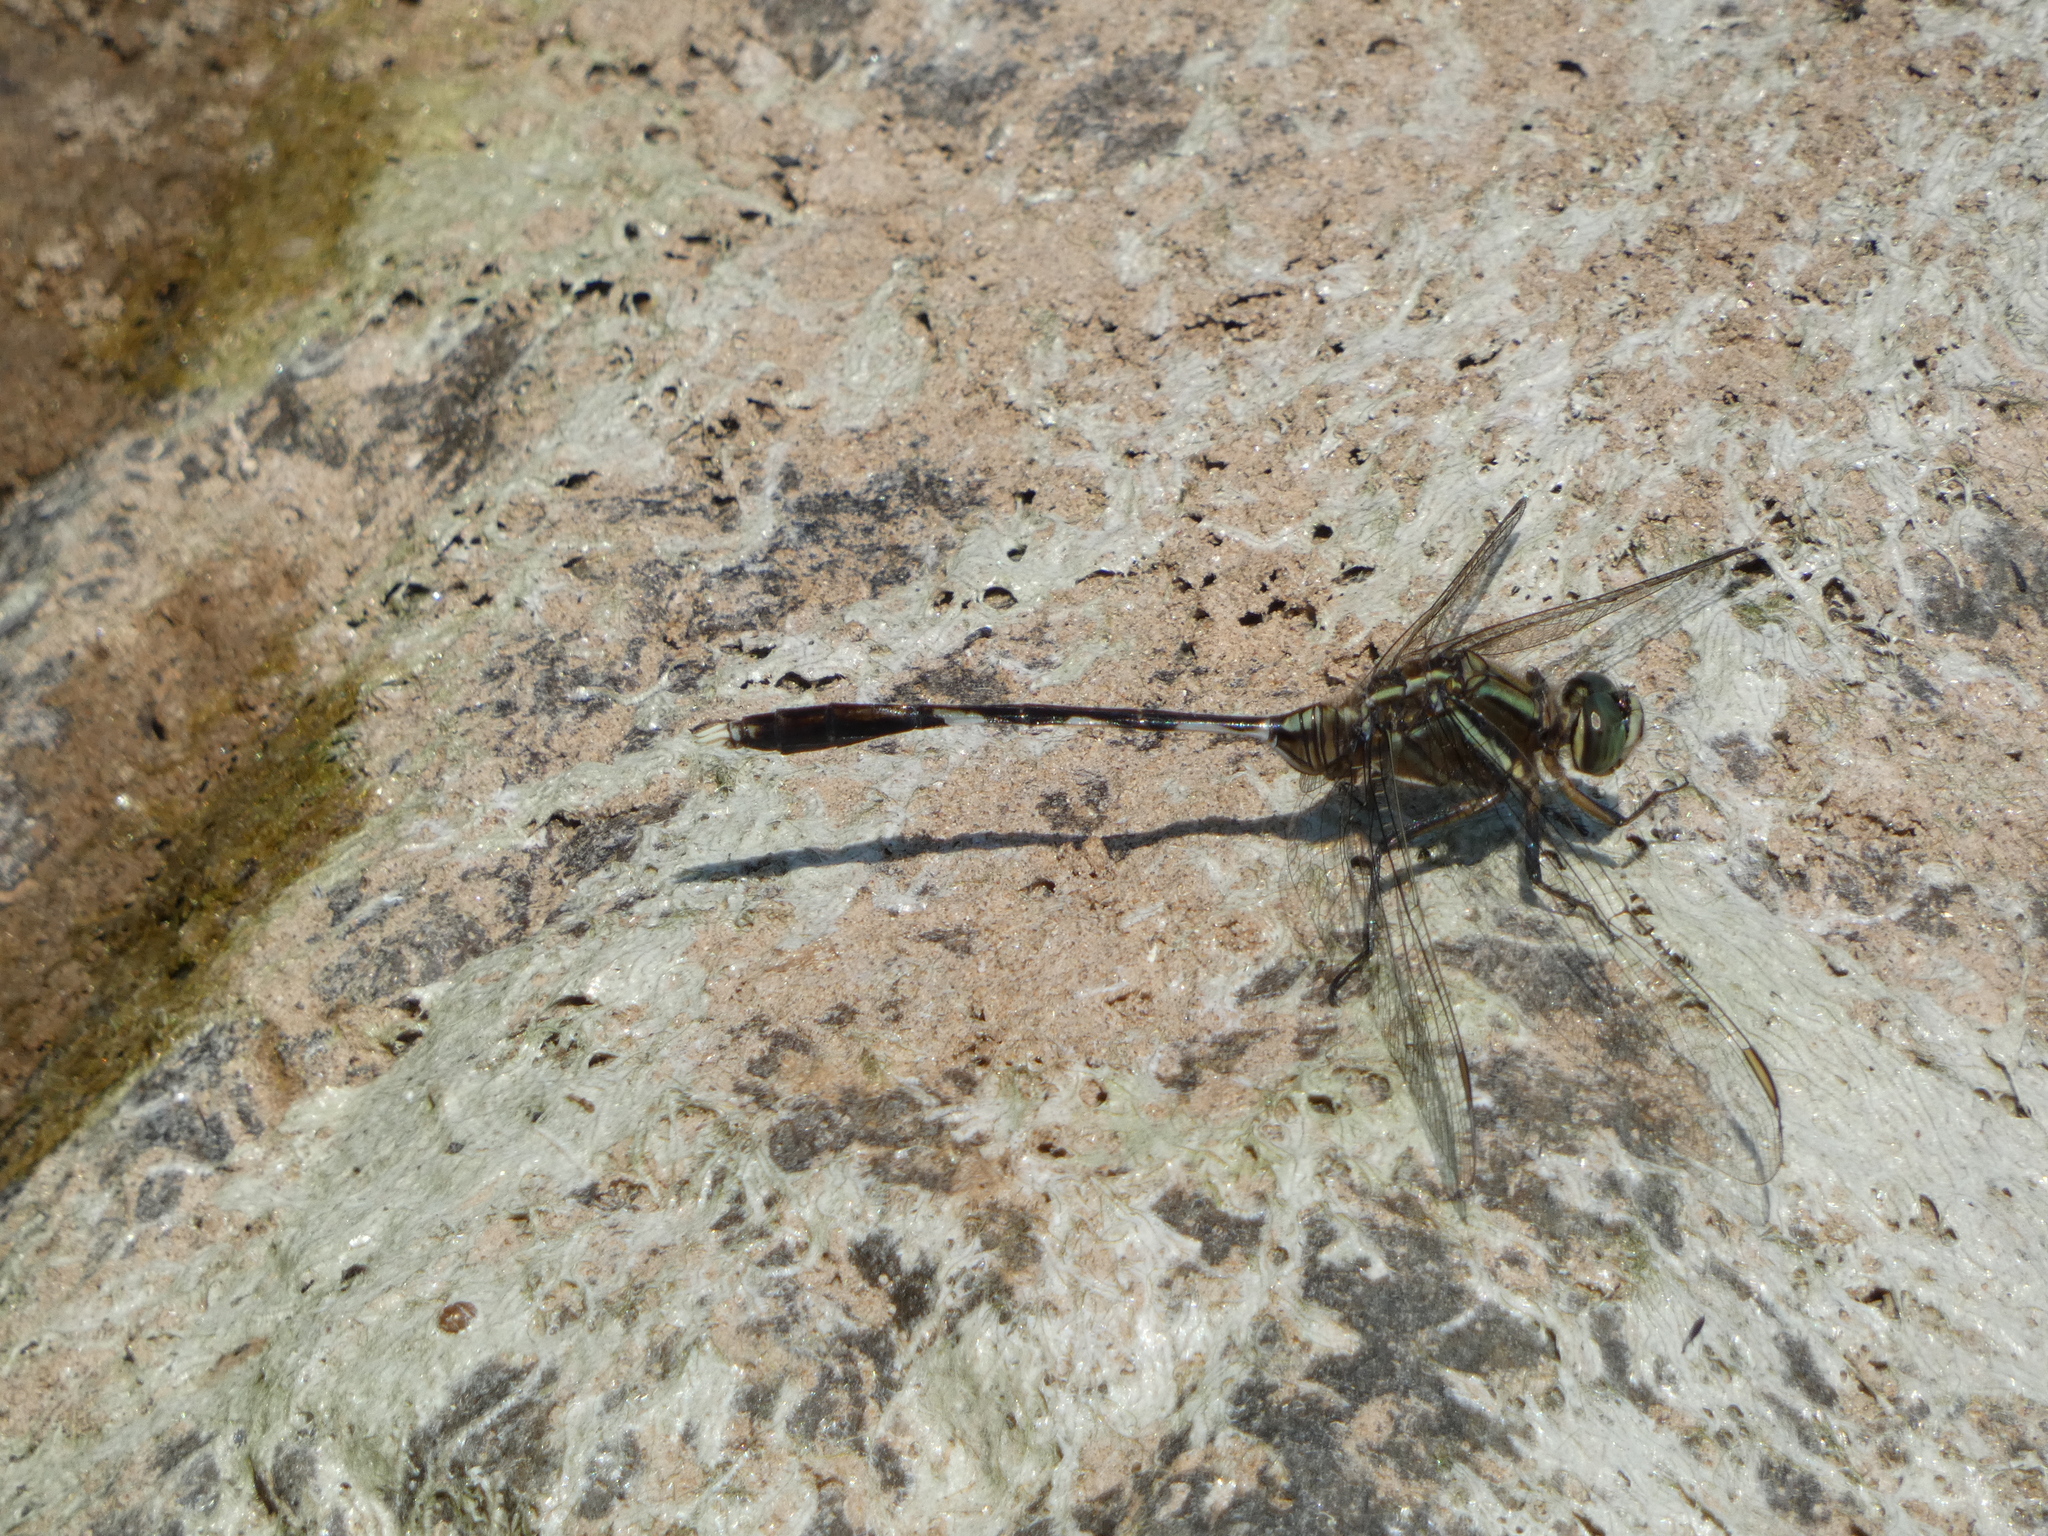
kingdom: Animalia
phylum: Arthropoda
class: Insecta
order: Odonata
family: Libellulidae
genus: Orthetrum
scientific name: Orthetrum sabina
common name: Slender skimmer
